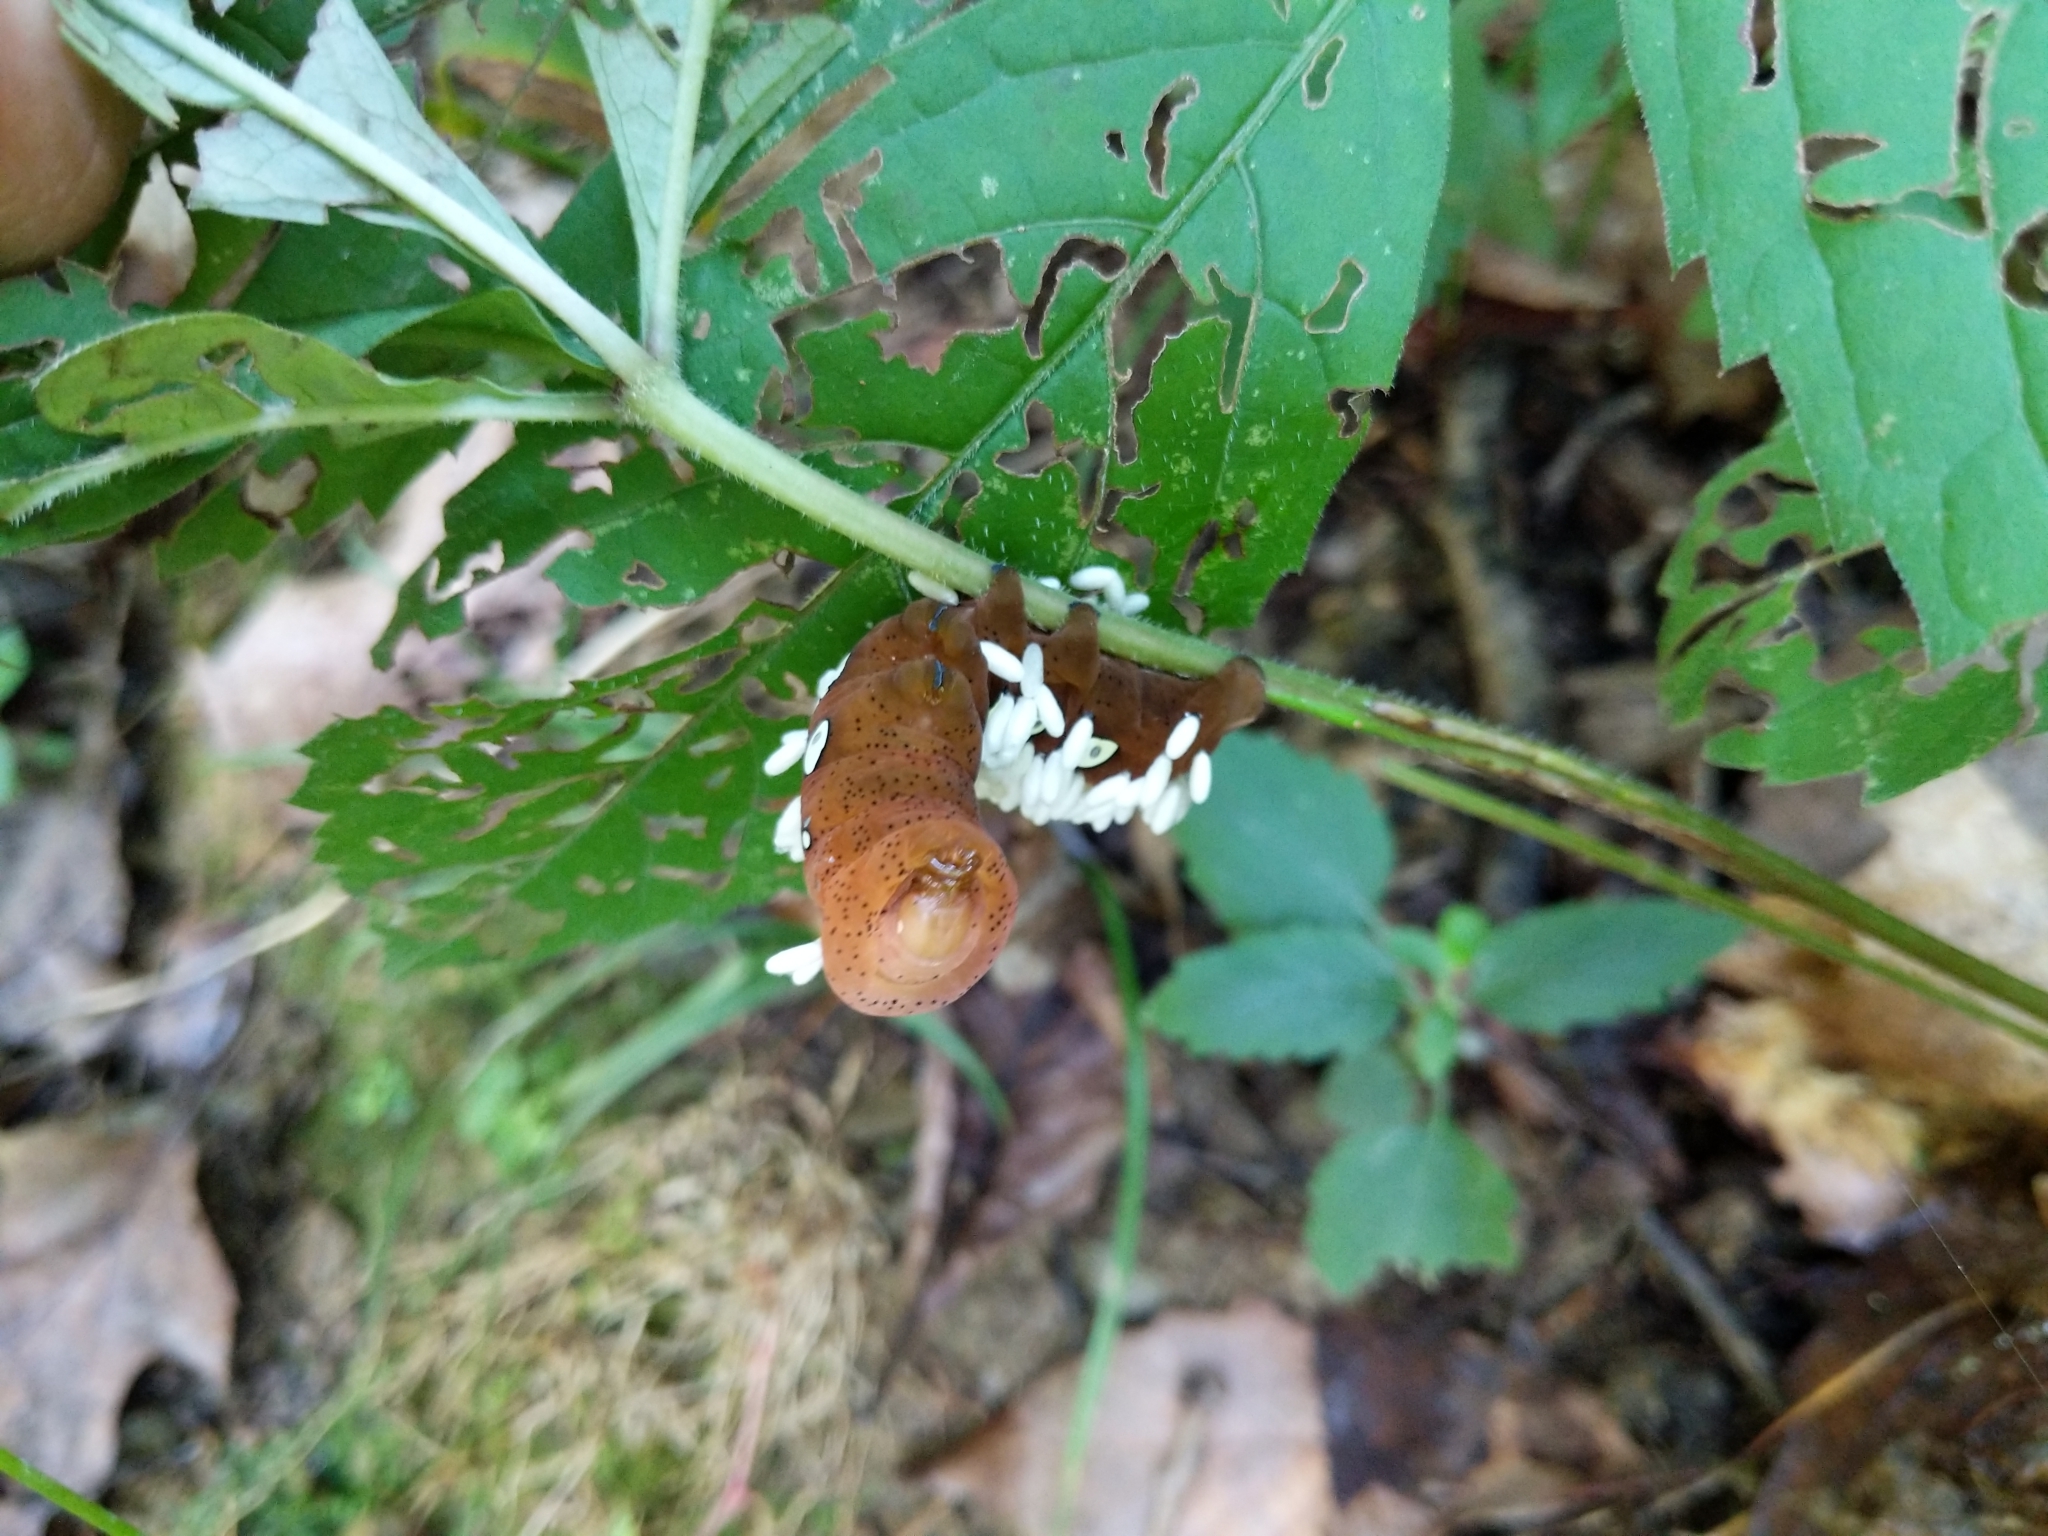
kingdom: Animalia
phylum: Arthropoda
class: Insecta
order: Lepidoptera
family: Sphingidae
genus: Eumorpha
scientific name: Eumorpha pandorus
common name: Pandora sphinx
